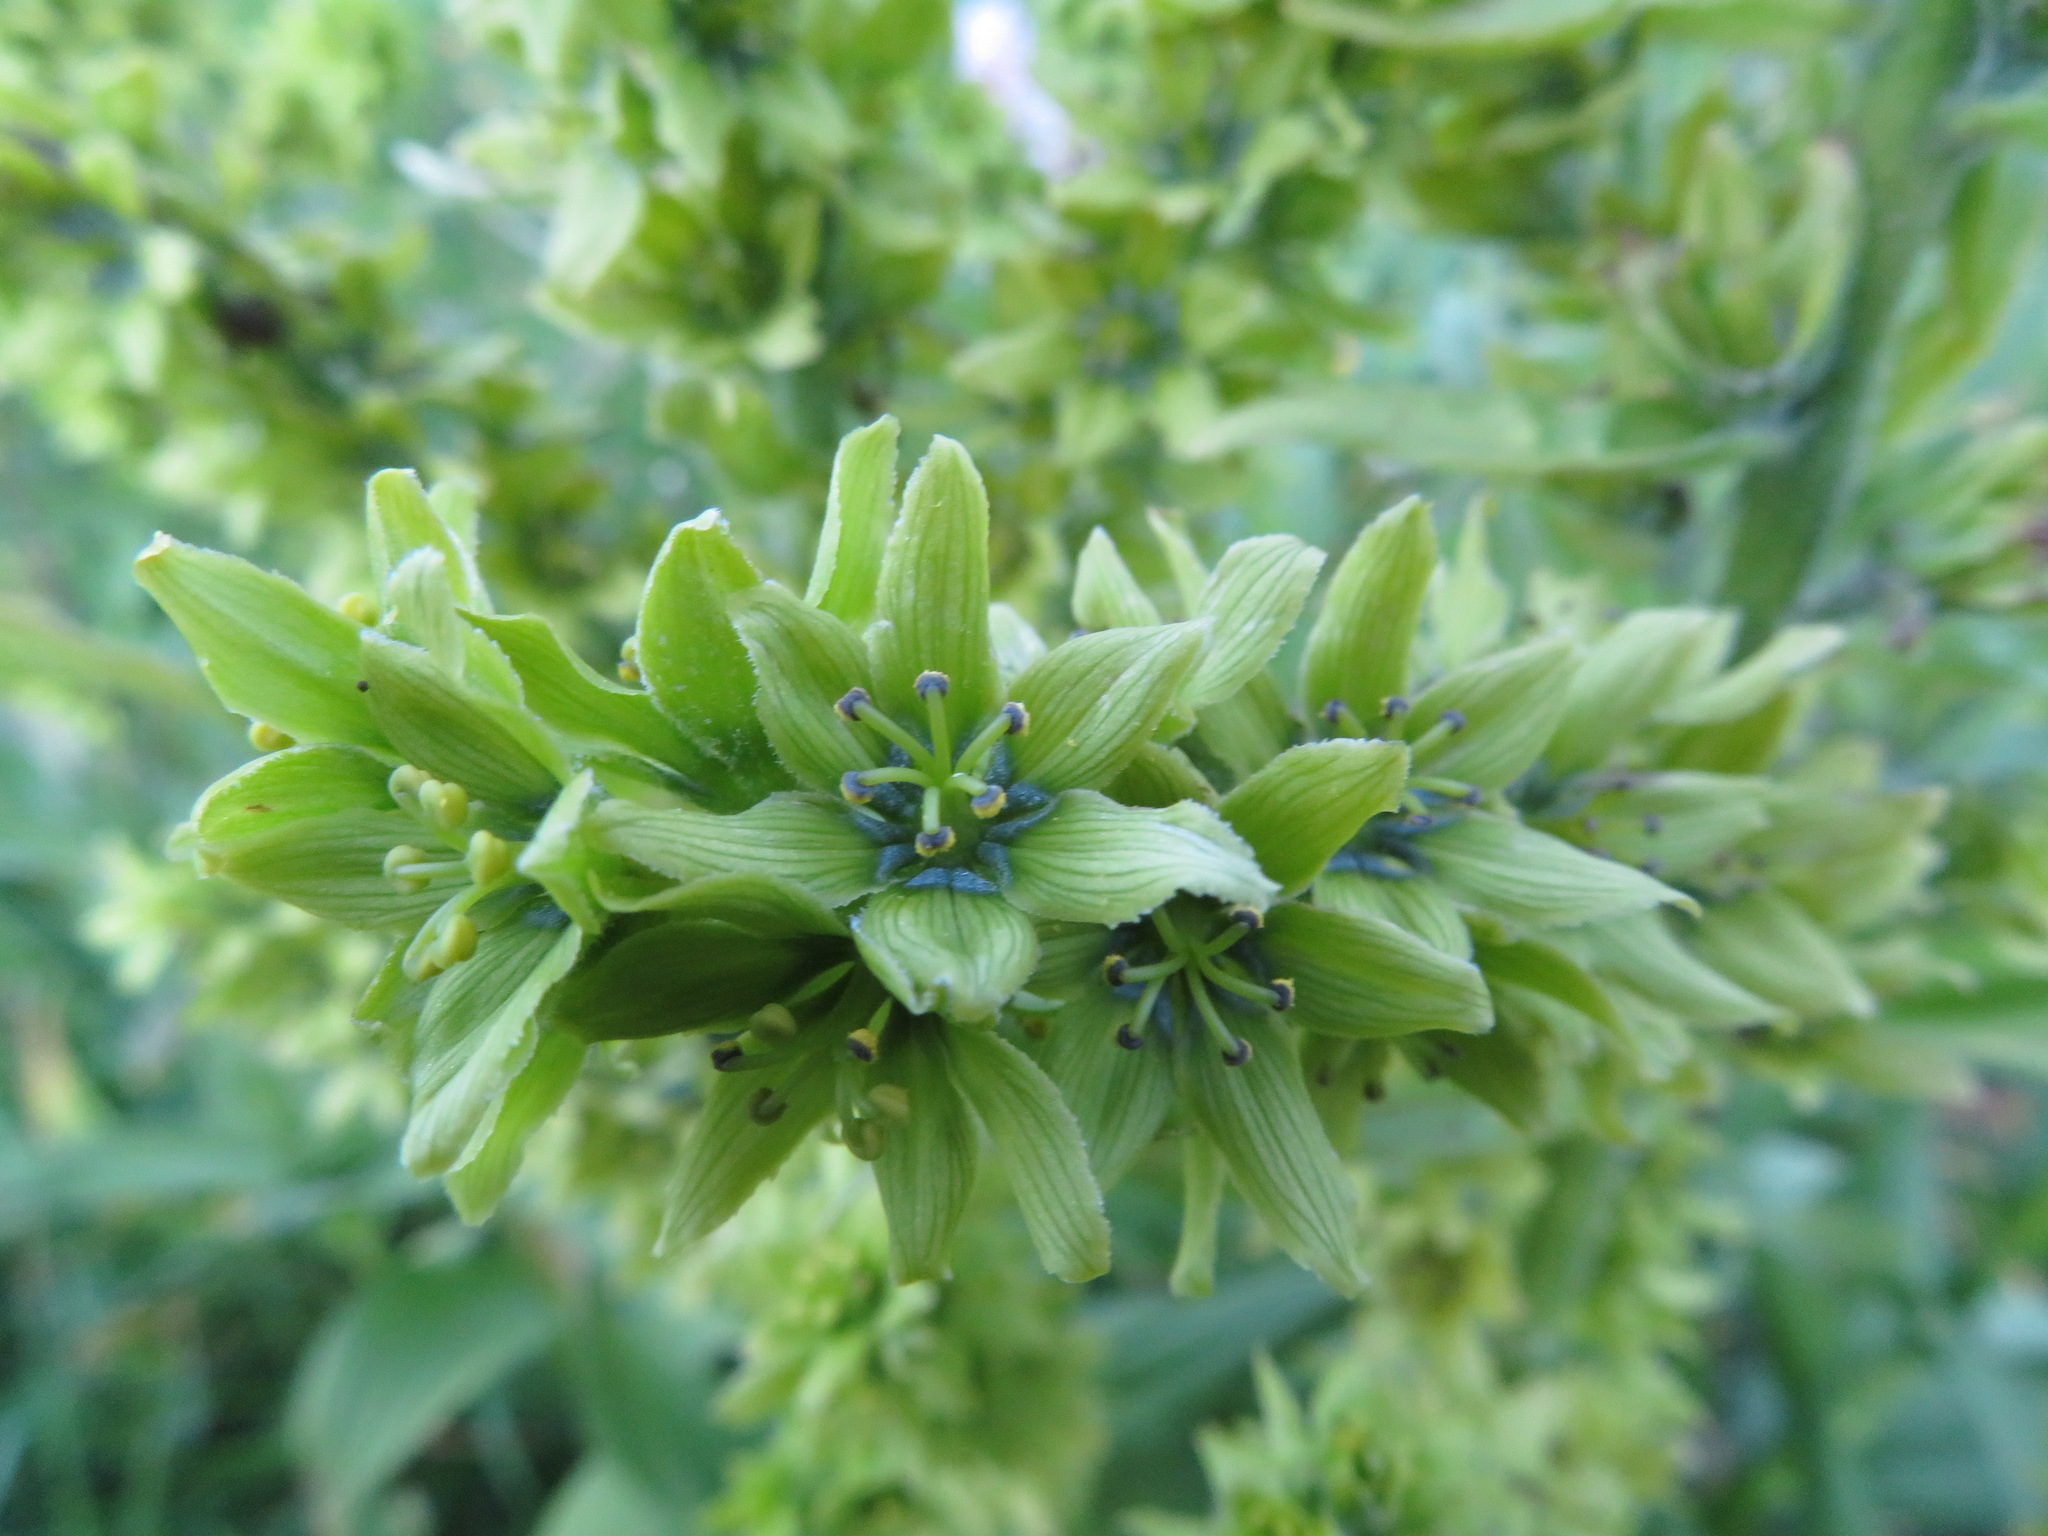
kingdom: Plantae
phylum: Tracheophyta
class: Liliopsida
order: Liliales
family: Melanthiaceae
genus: Veratrum
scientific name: Veratrum album
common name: White veratrum
